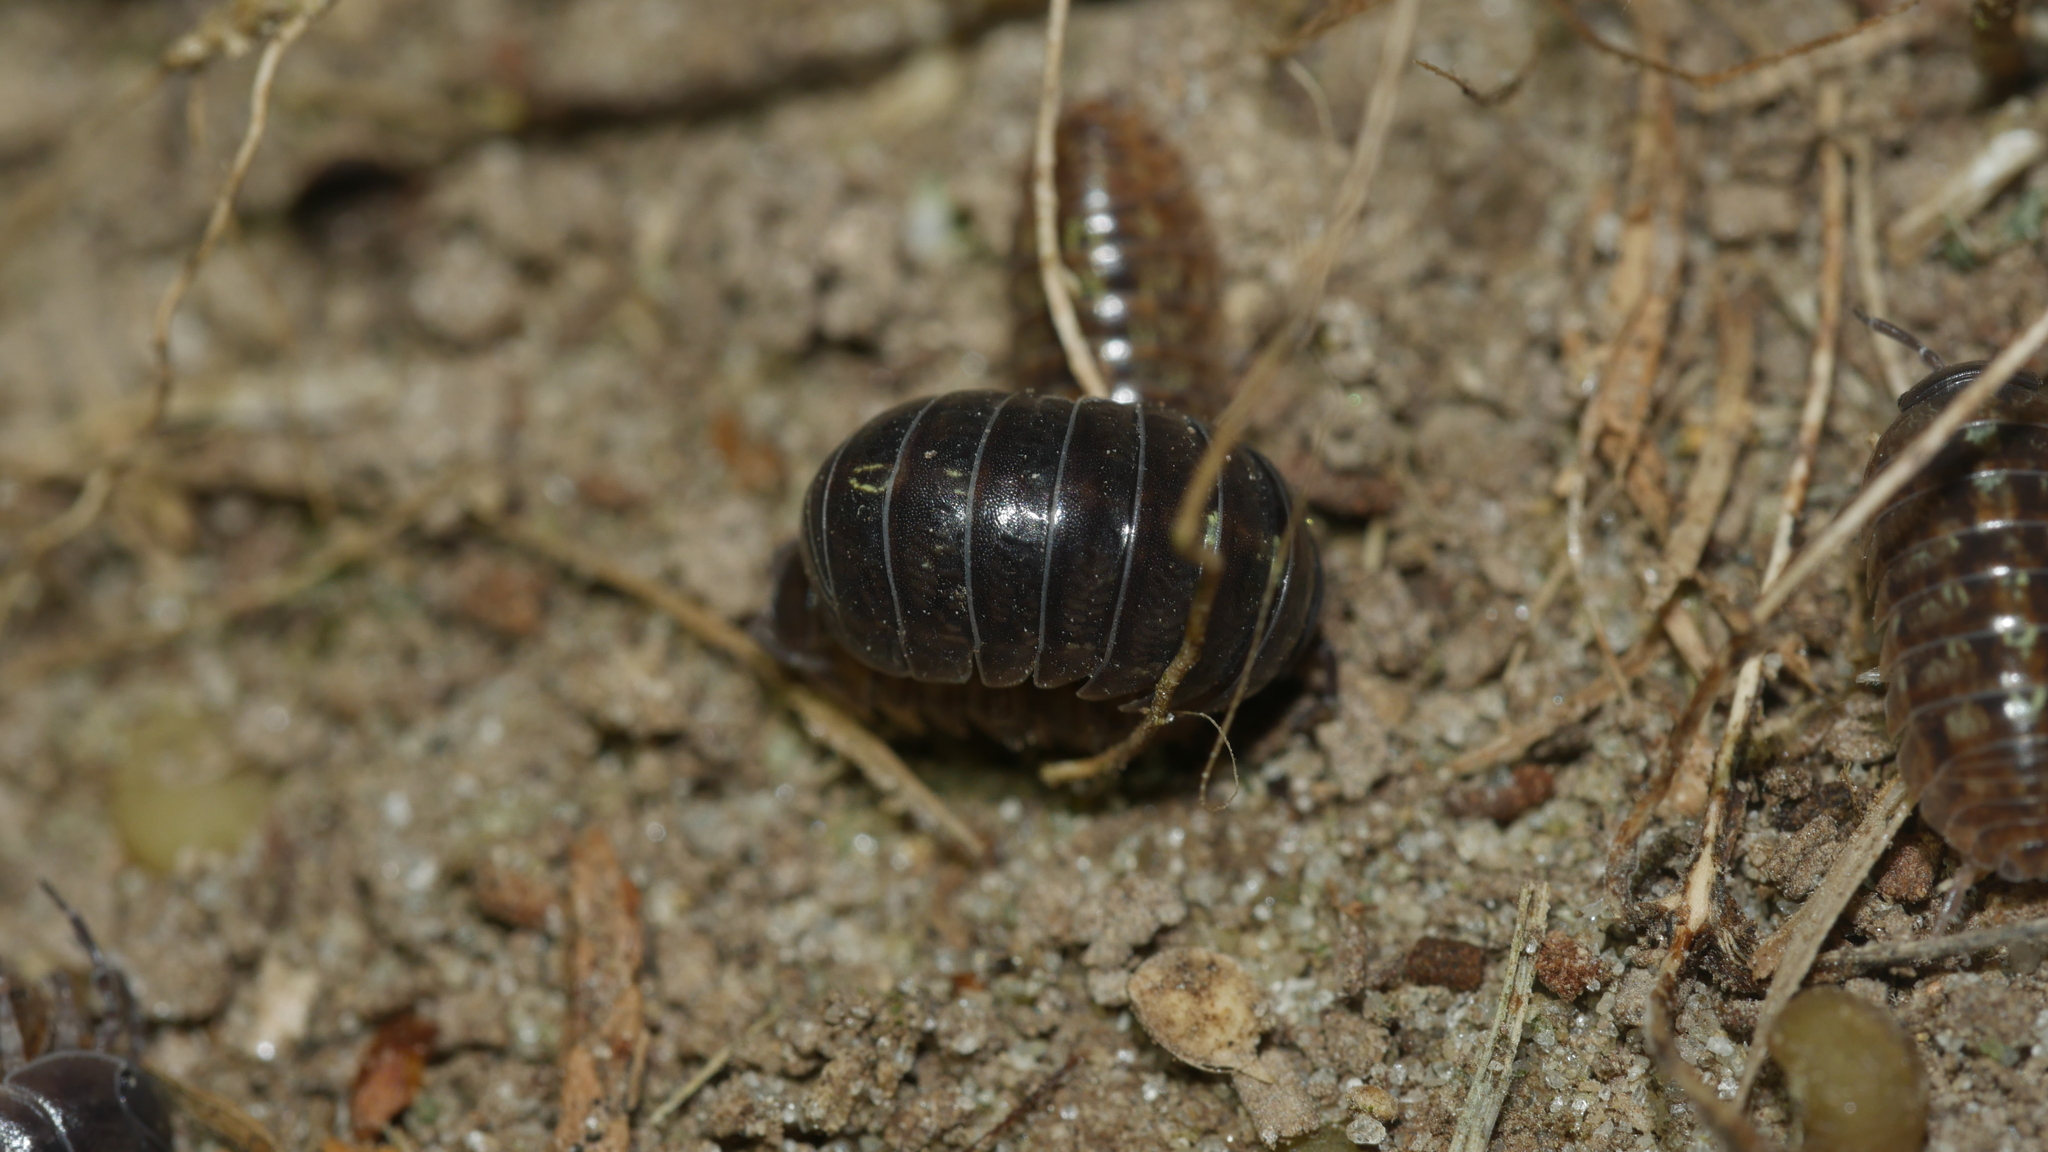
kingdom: Animalia
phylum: Arthropoda
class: Malacostraca
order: Isopoda
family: Armadillidiidae
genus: Armadillidium
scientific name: Armadillidium vulgare
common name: Common pill woodlouse
